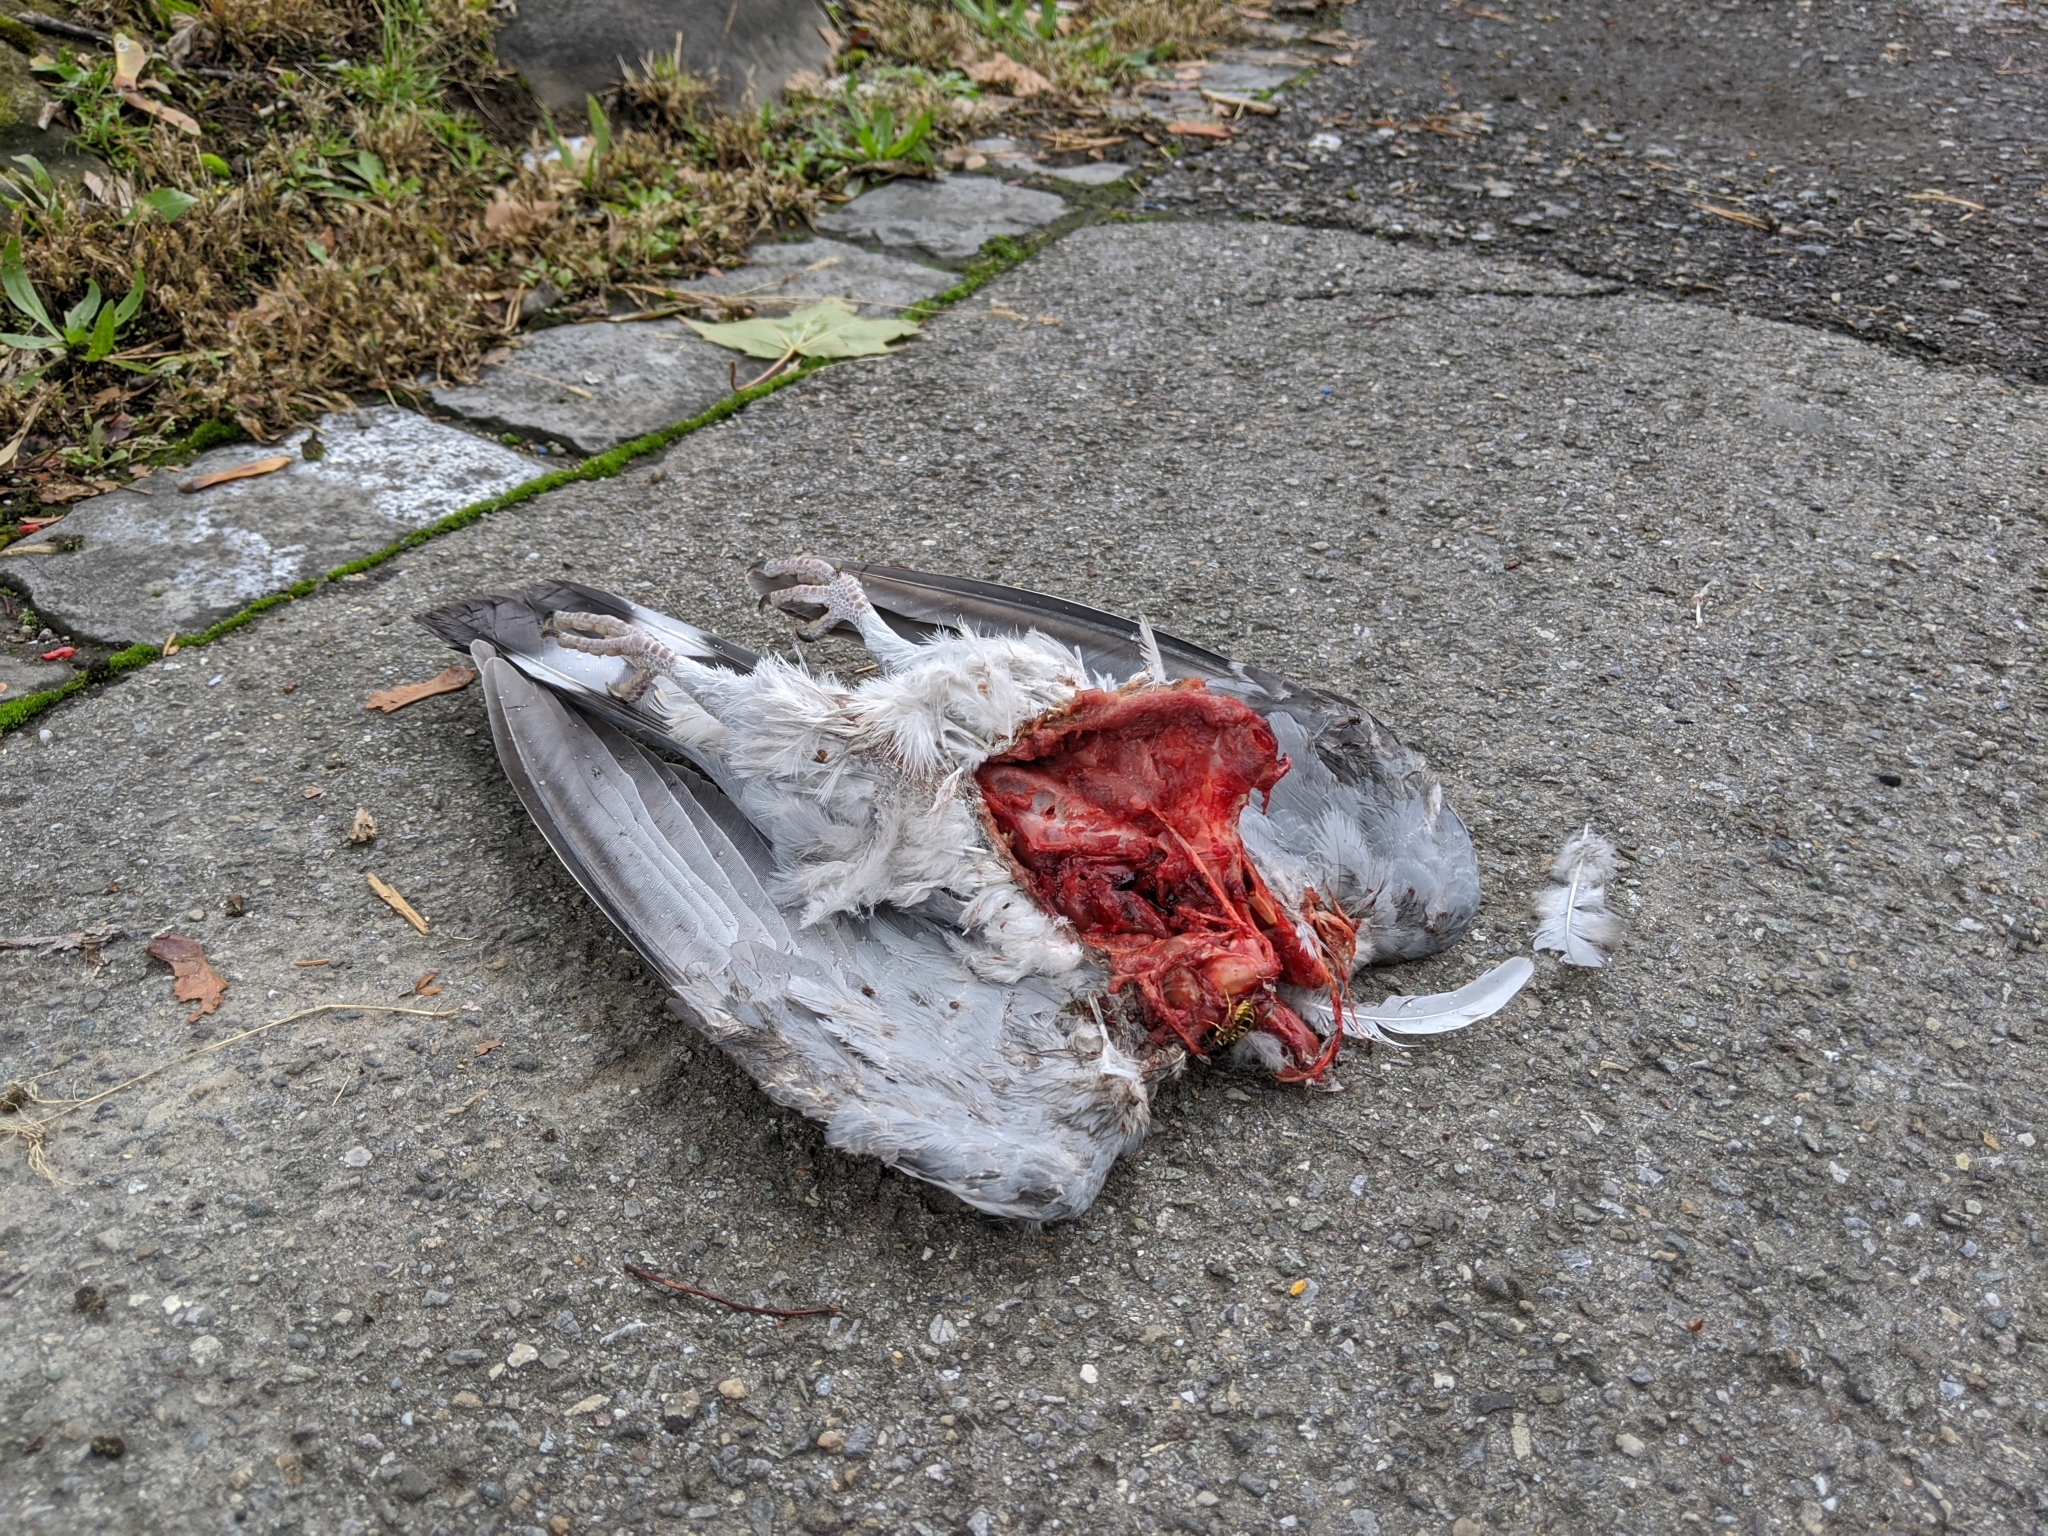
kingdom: Animalia
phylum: Chordata
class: Aves
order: Columbiformes
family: Columbidae
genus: Columba
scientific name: Columba palumbus
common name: Common wood pigeon
